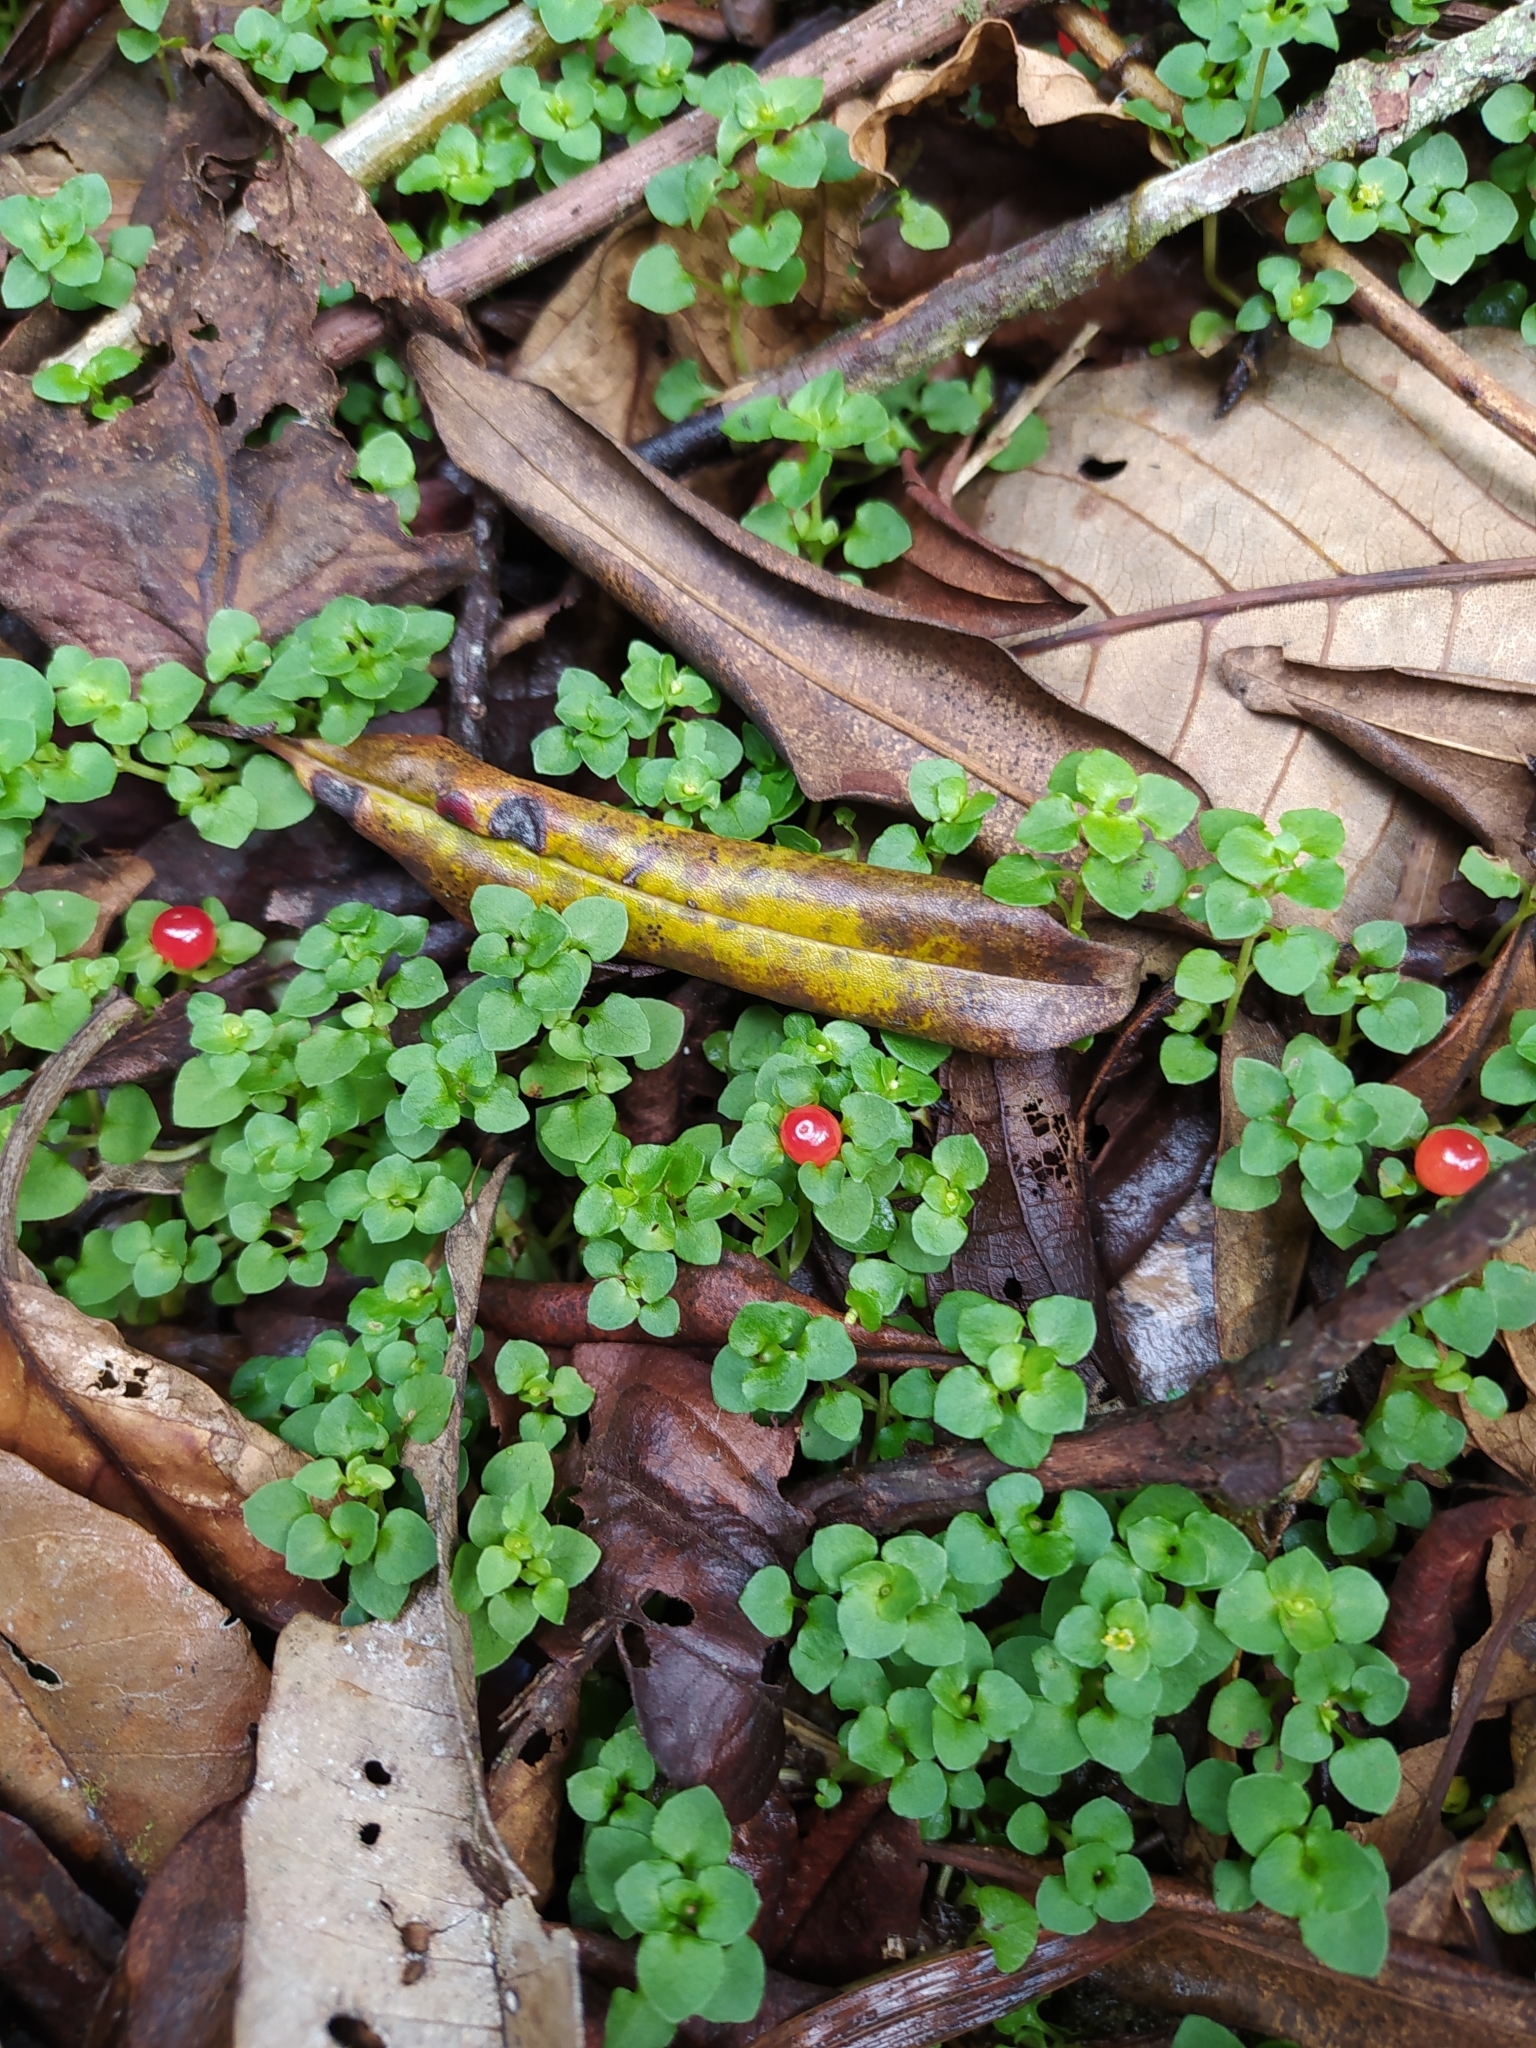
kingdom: Plantae
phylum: Tracheophyta
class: Magnoliopsida
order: Gentianales
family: Rubiaceae
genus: Nertera
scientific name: Nertera granadensis
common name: Beadplant
